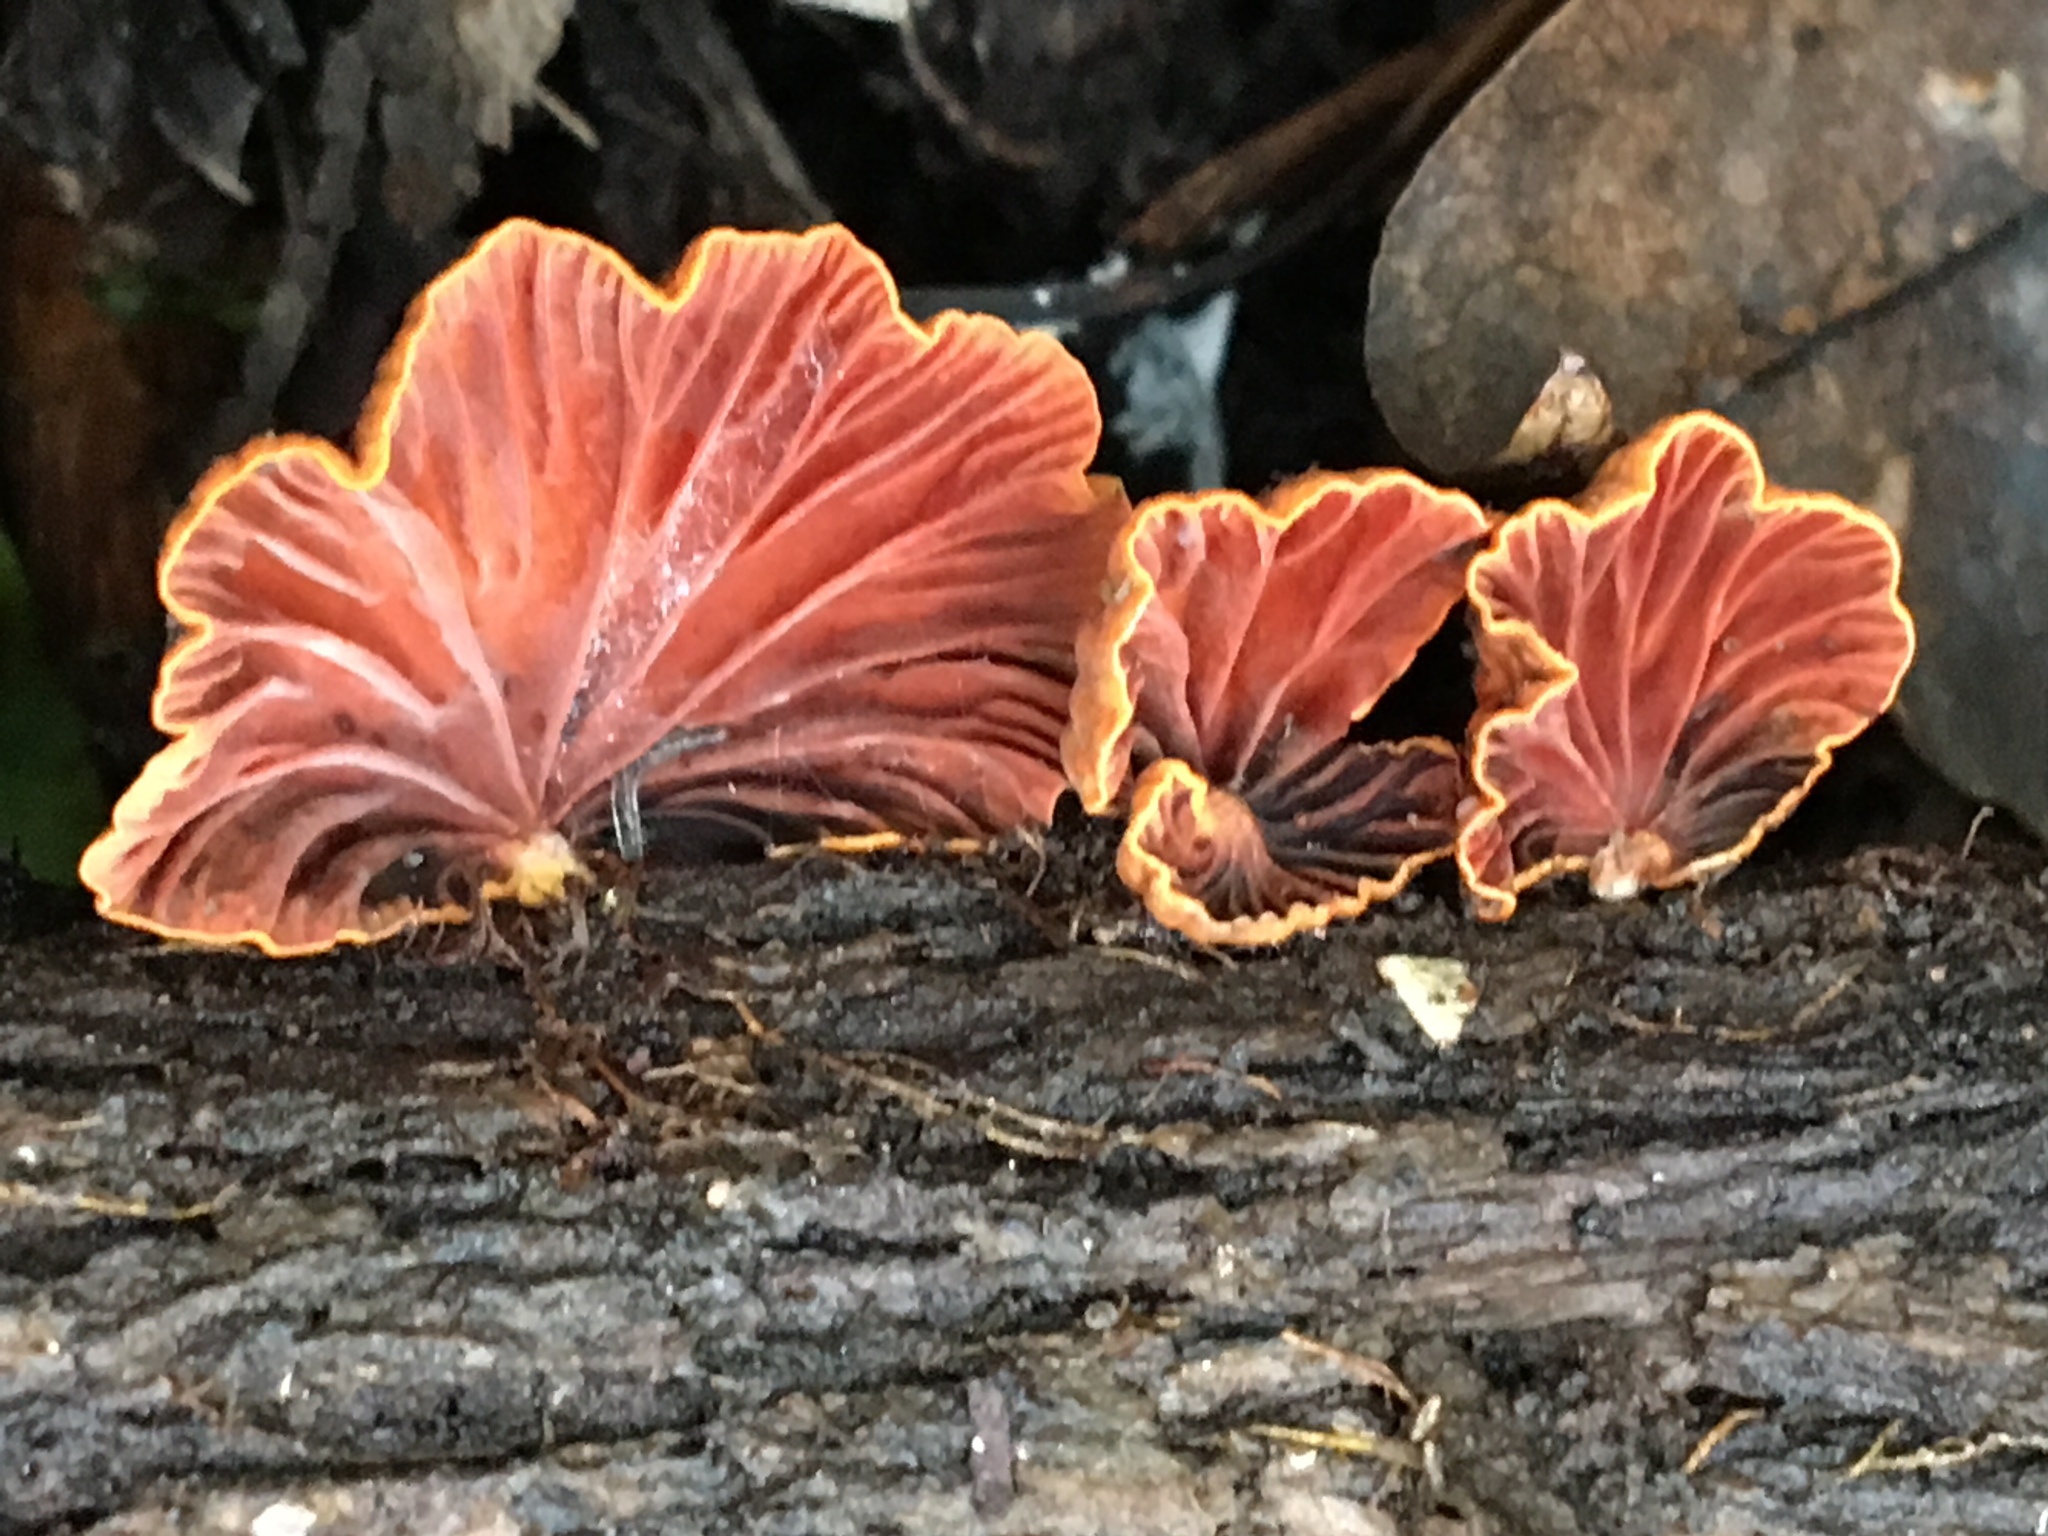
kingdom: Fungi
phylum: Basidiomycota
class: Agaricomycetes
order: Agaricales
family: Omphalotaceae
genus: Anthracophyllum
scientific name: Anthracophyllum archeri
